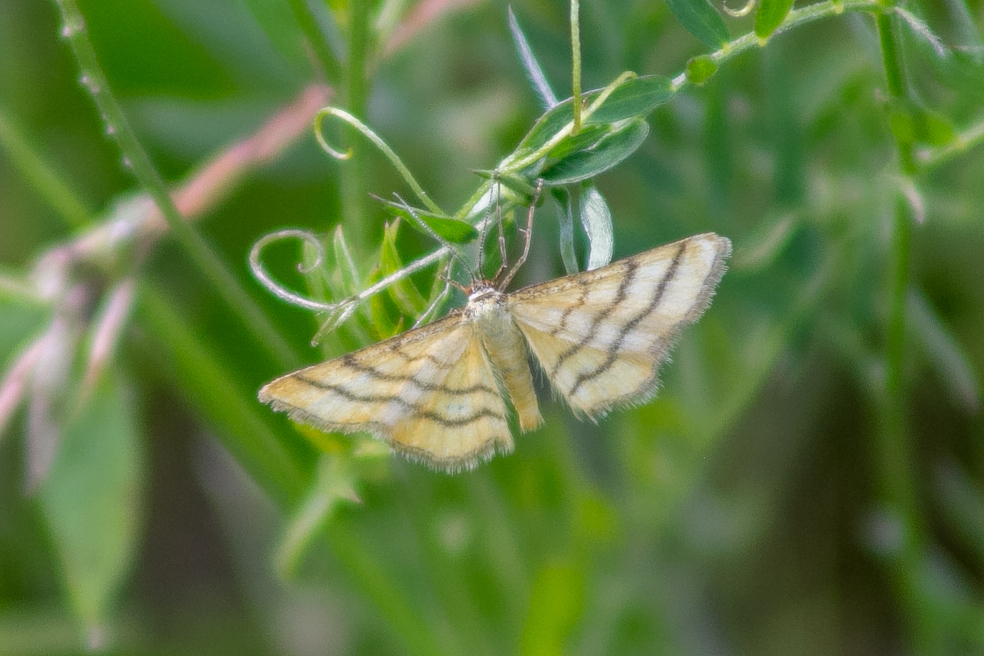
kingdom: Animalia
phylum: Arthropoda
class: Insecta
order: Lepidoptera
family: Geometridae
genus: Idaea
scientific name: Idaea aureolaria
